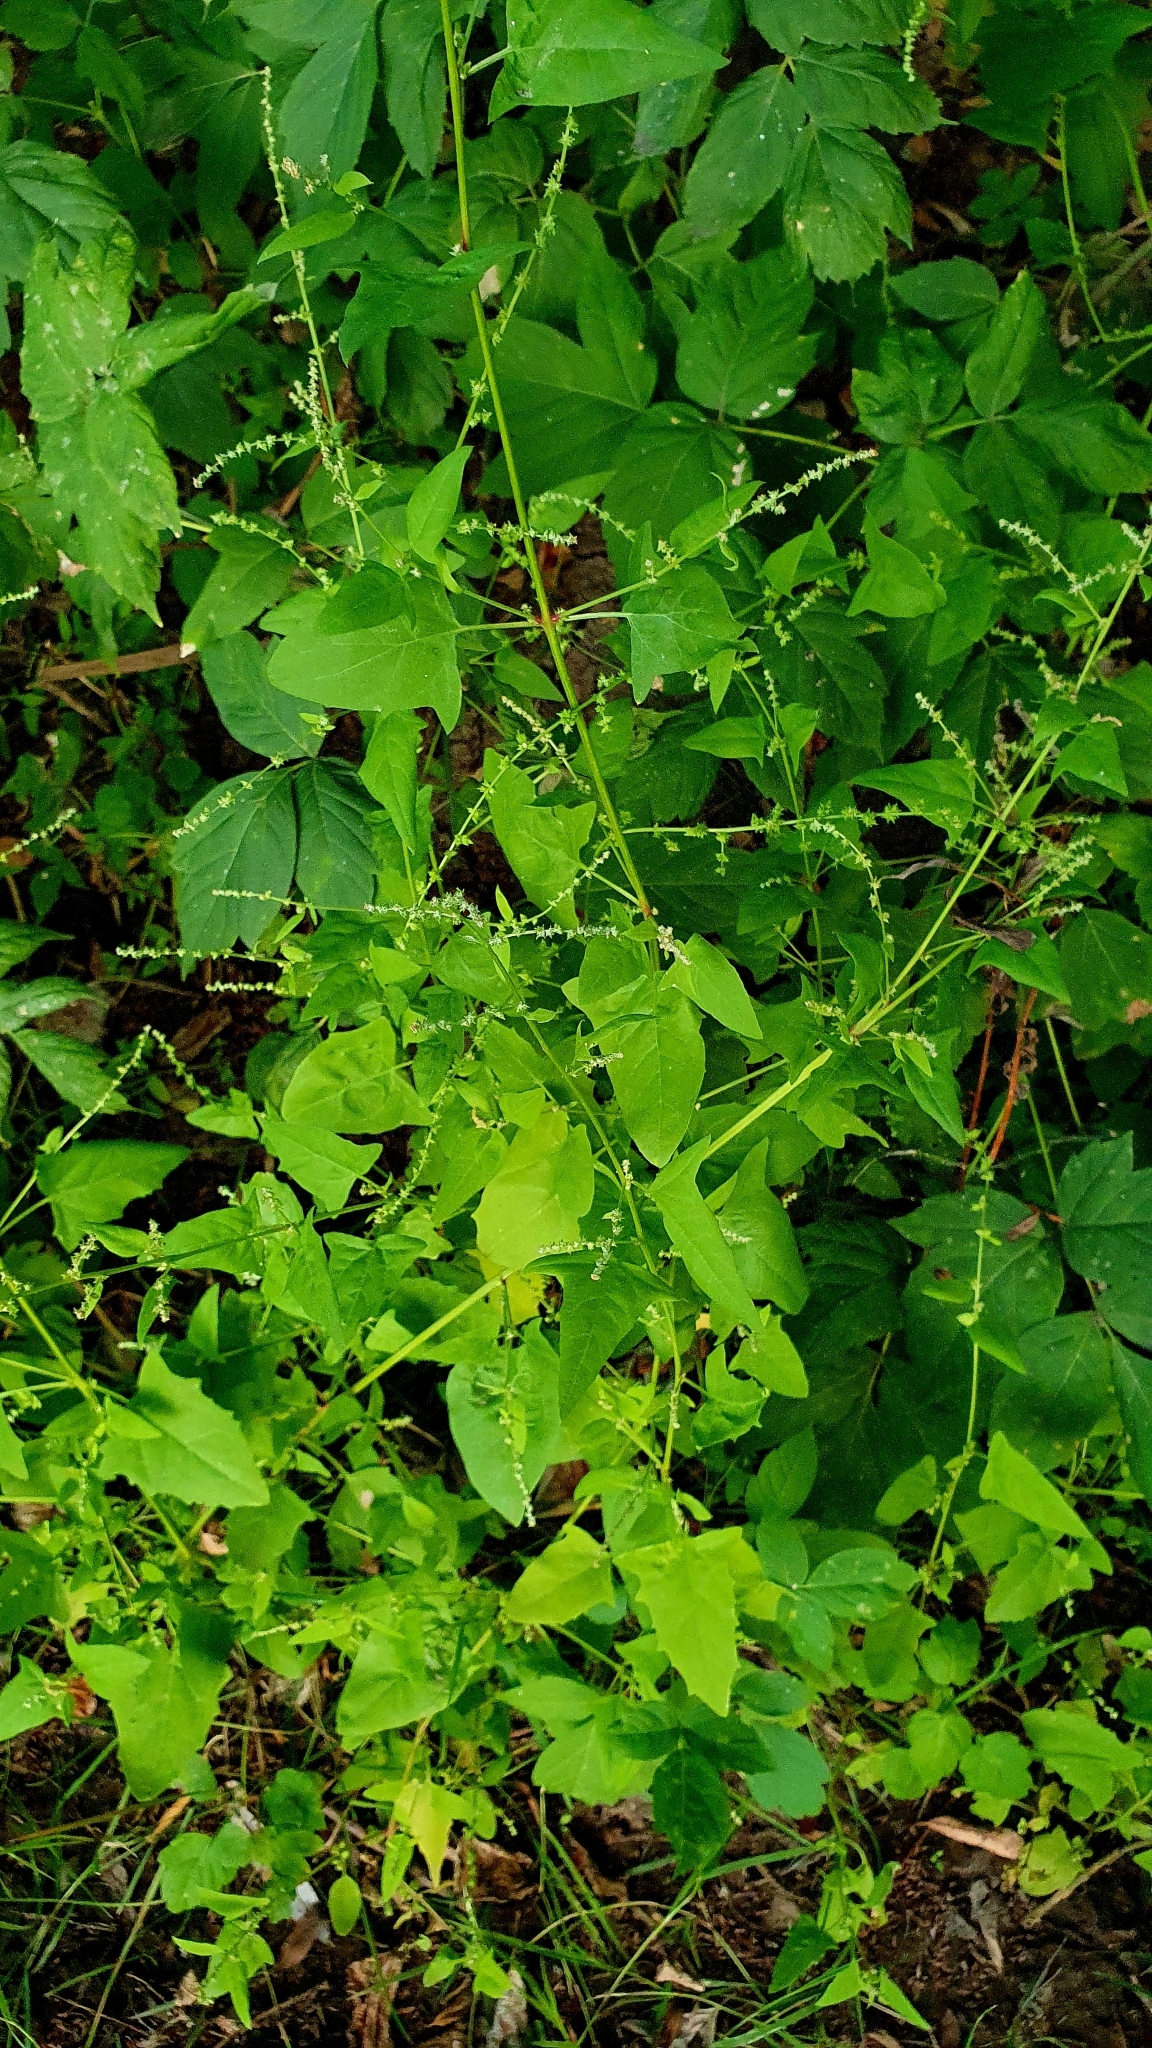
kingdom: Plantae
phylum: Tracheophyta
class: Magnoliopsida
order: Caryophyllales
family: Amaranthaceae
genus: Chenopodiastrum
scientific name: Chenopodiastrum hybridum
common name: Mapleleaf goosefoot
